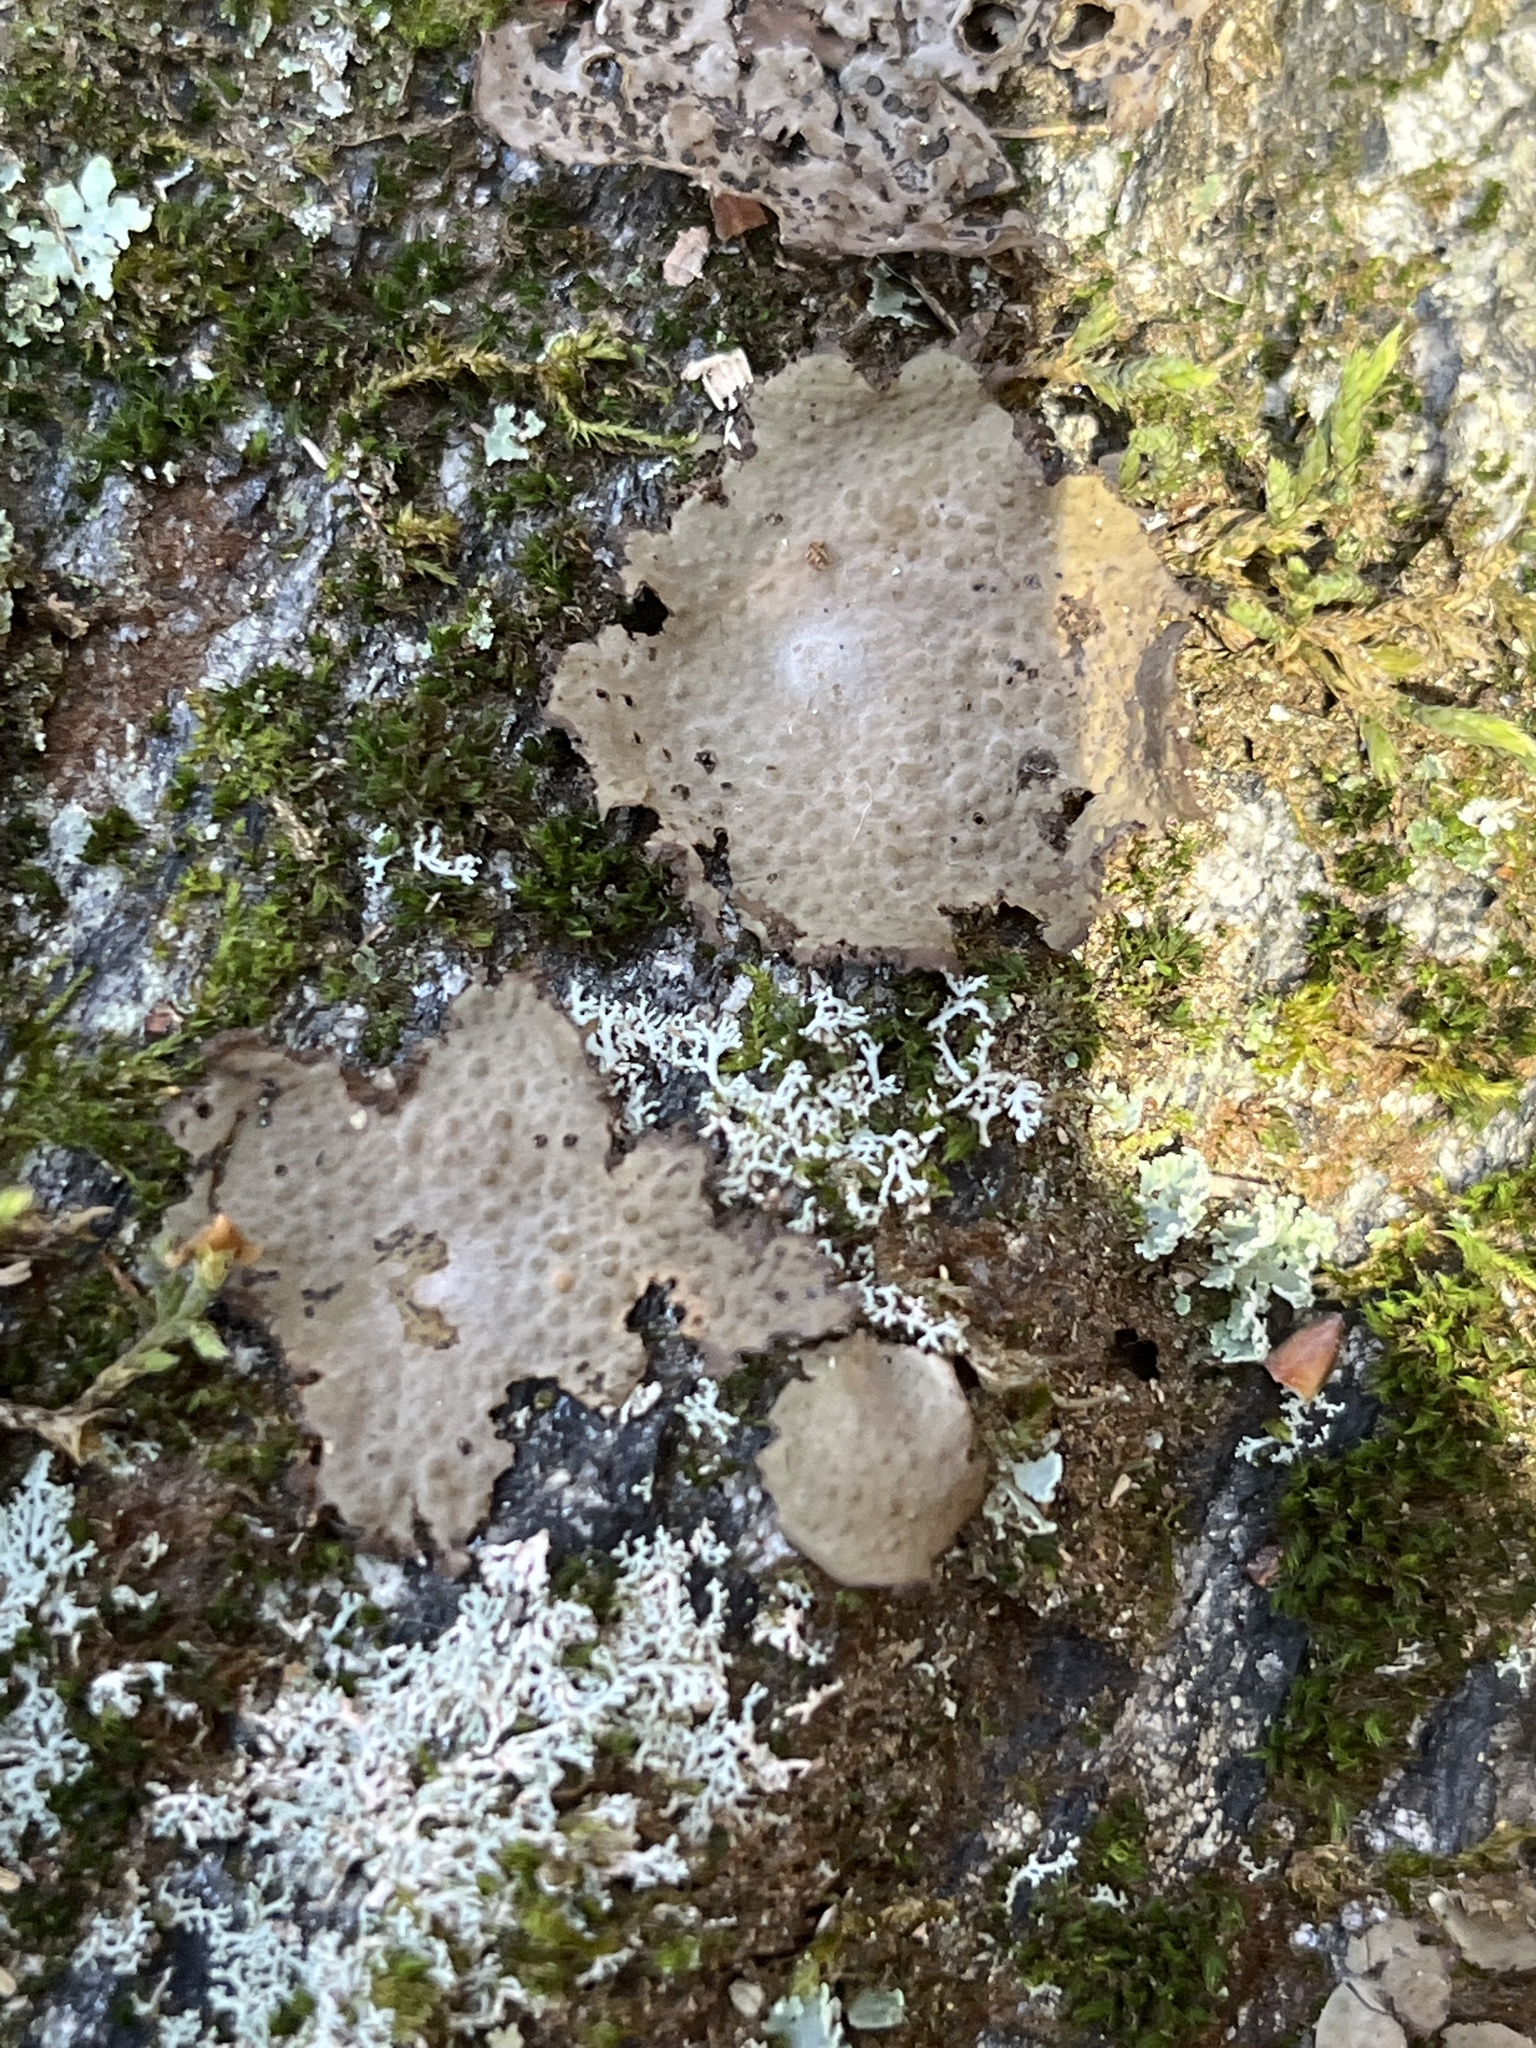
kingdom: Fungi
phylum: Ascomycota
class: Lecanoromycetes
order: Umbilicariales
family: Umbilicariaceae
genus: Lasallia
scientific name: Lasallia papulosa
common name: Common toadskin lichen
